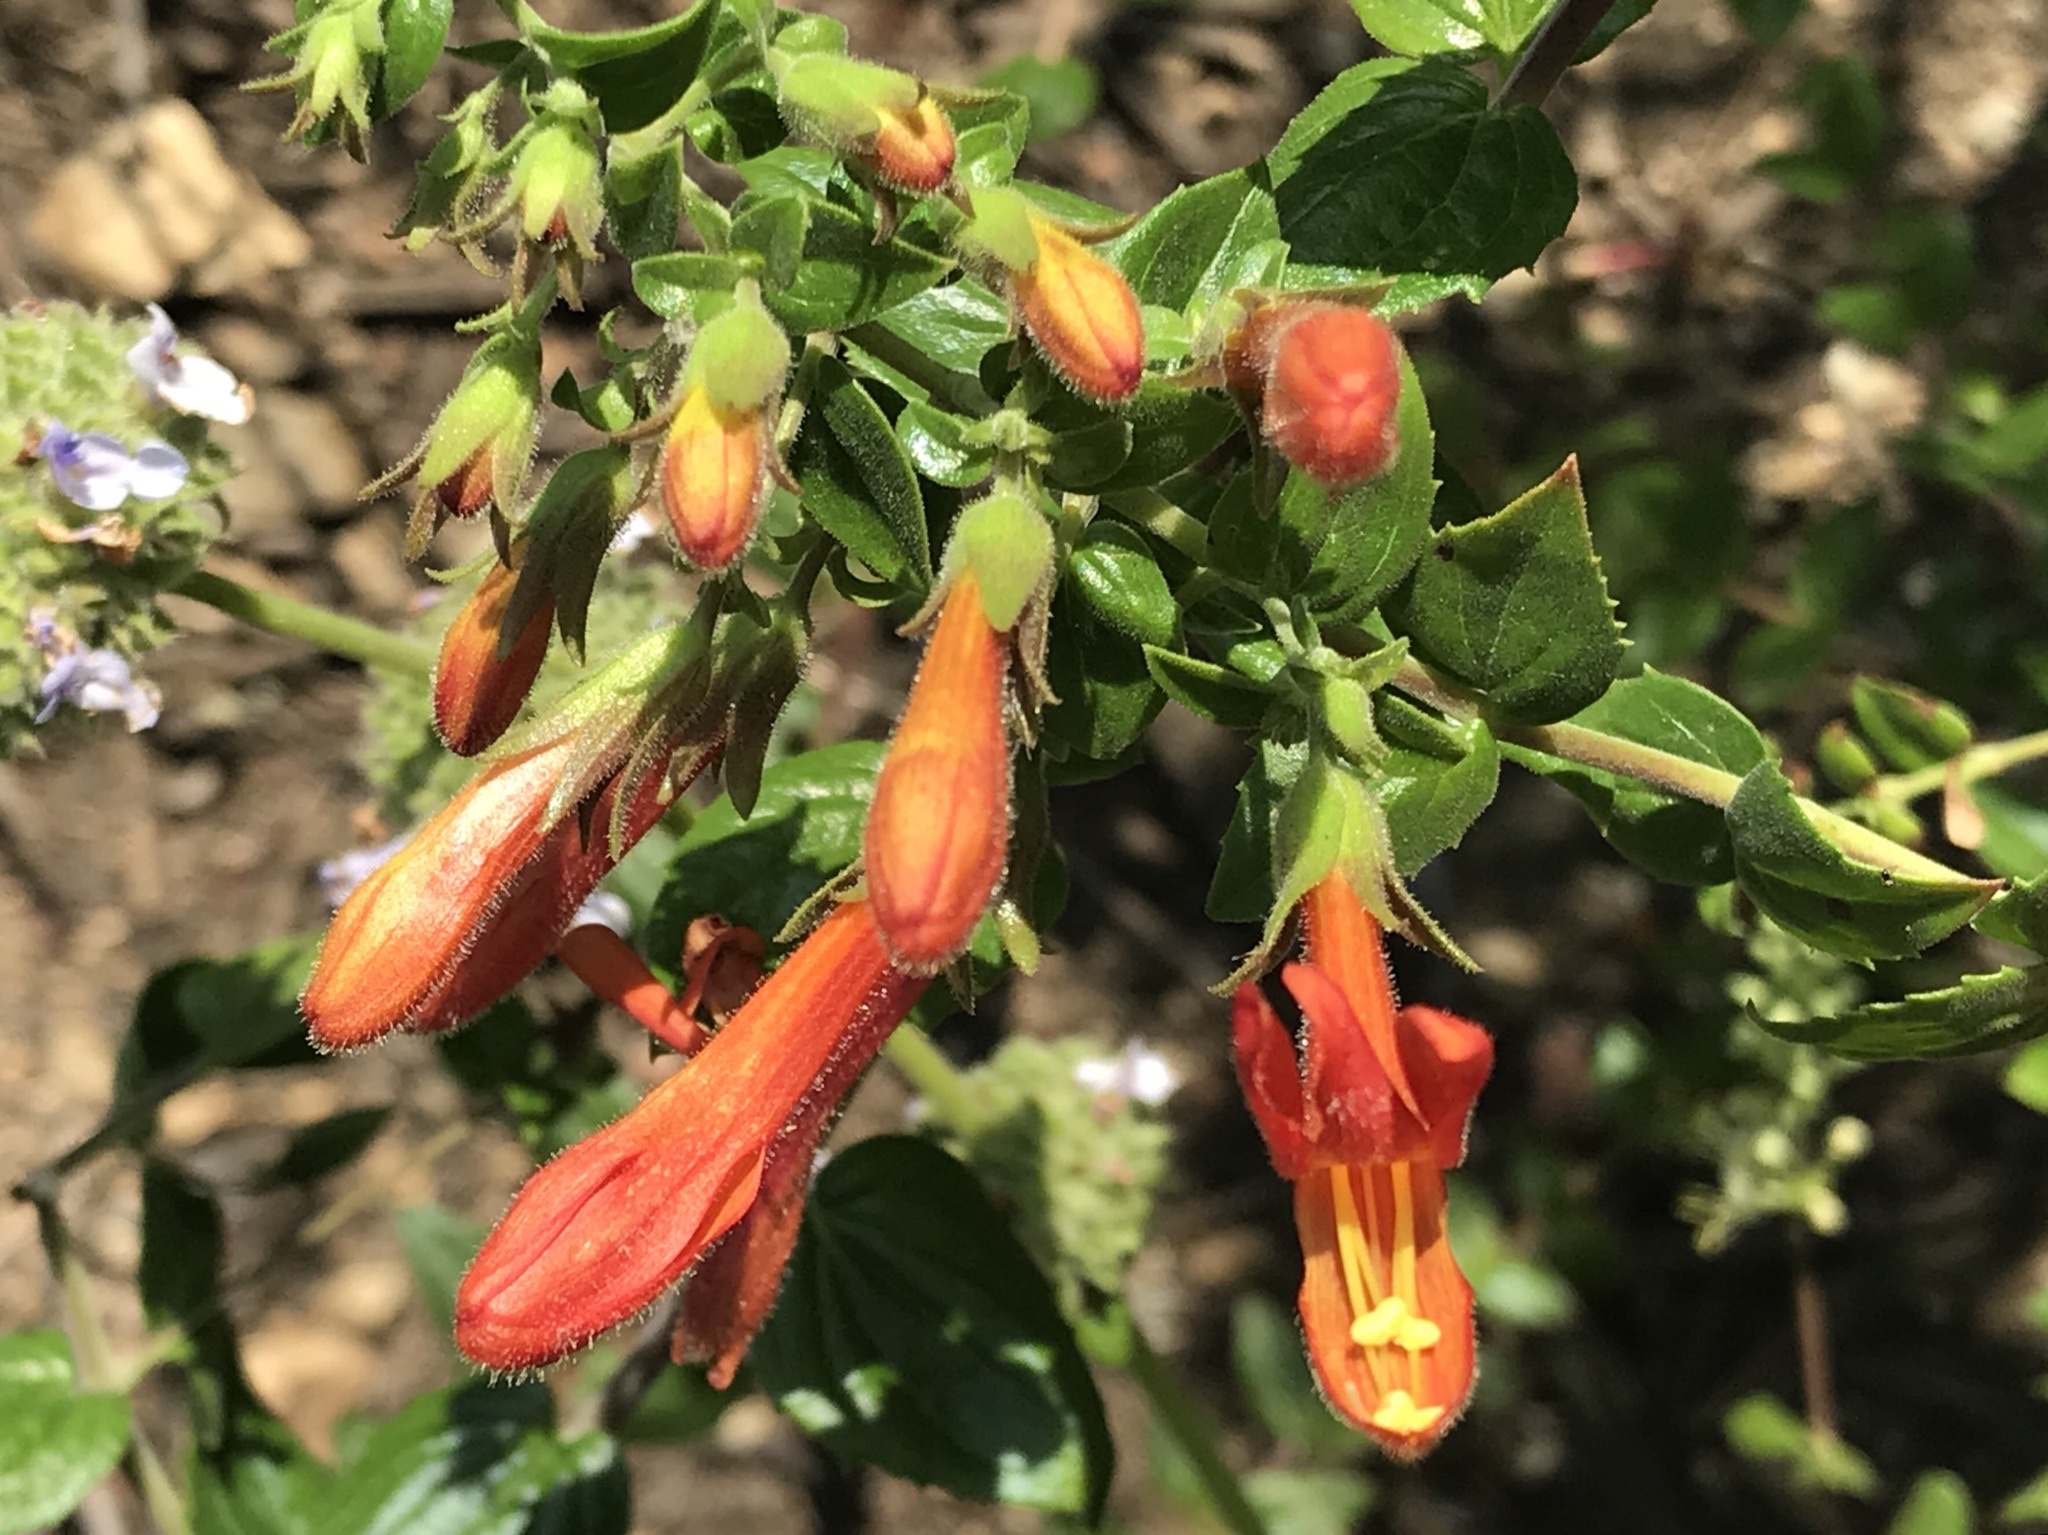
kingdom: Plantae
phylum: Tracheophyta
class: Magnoliopsida
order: Lamiales
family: Plantaginaceae
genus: Keckiella
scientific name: Keckiella cordifolia
